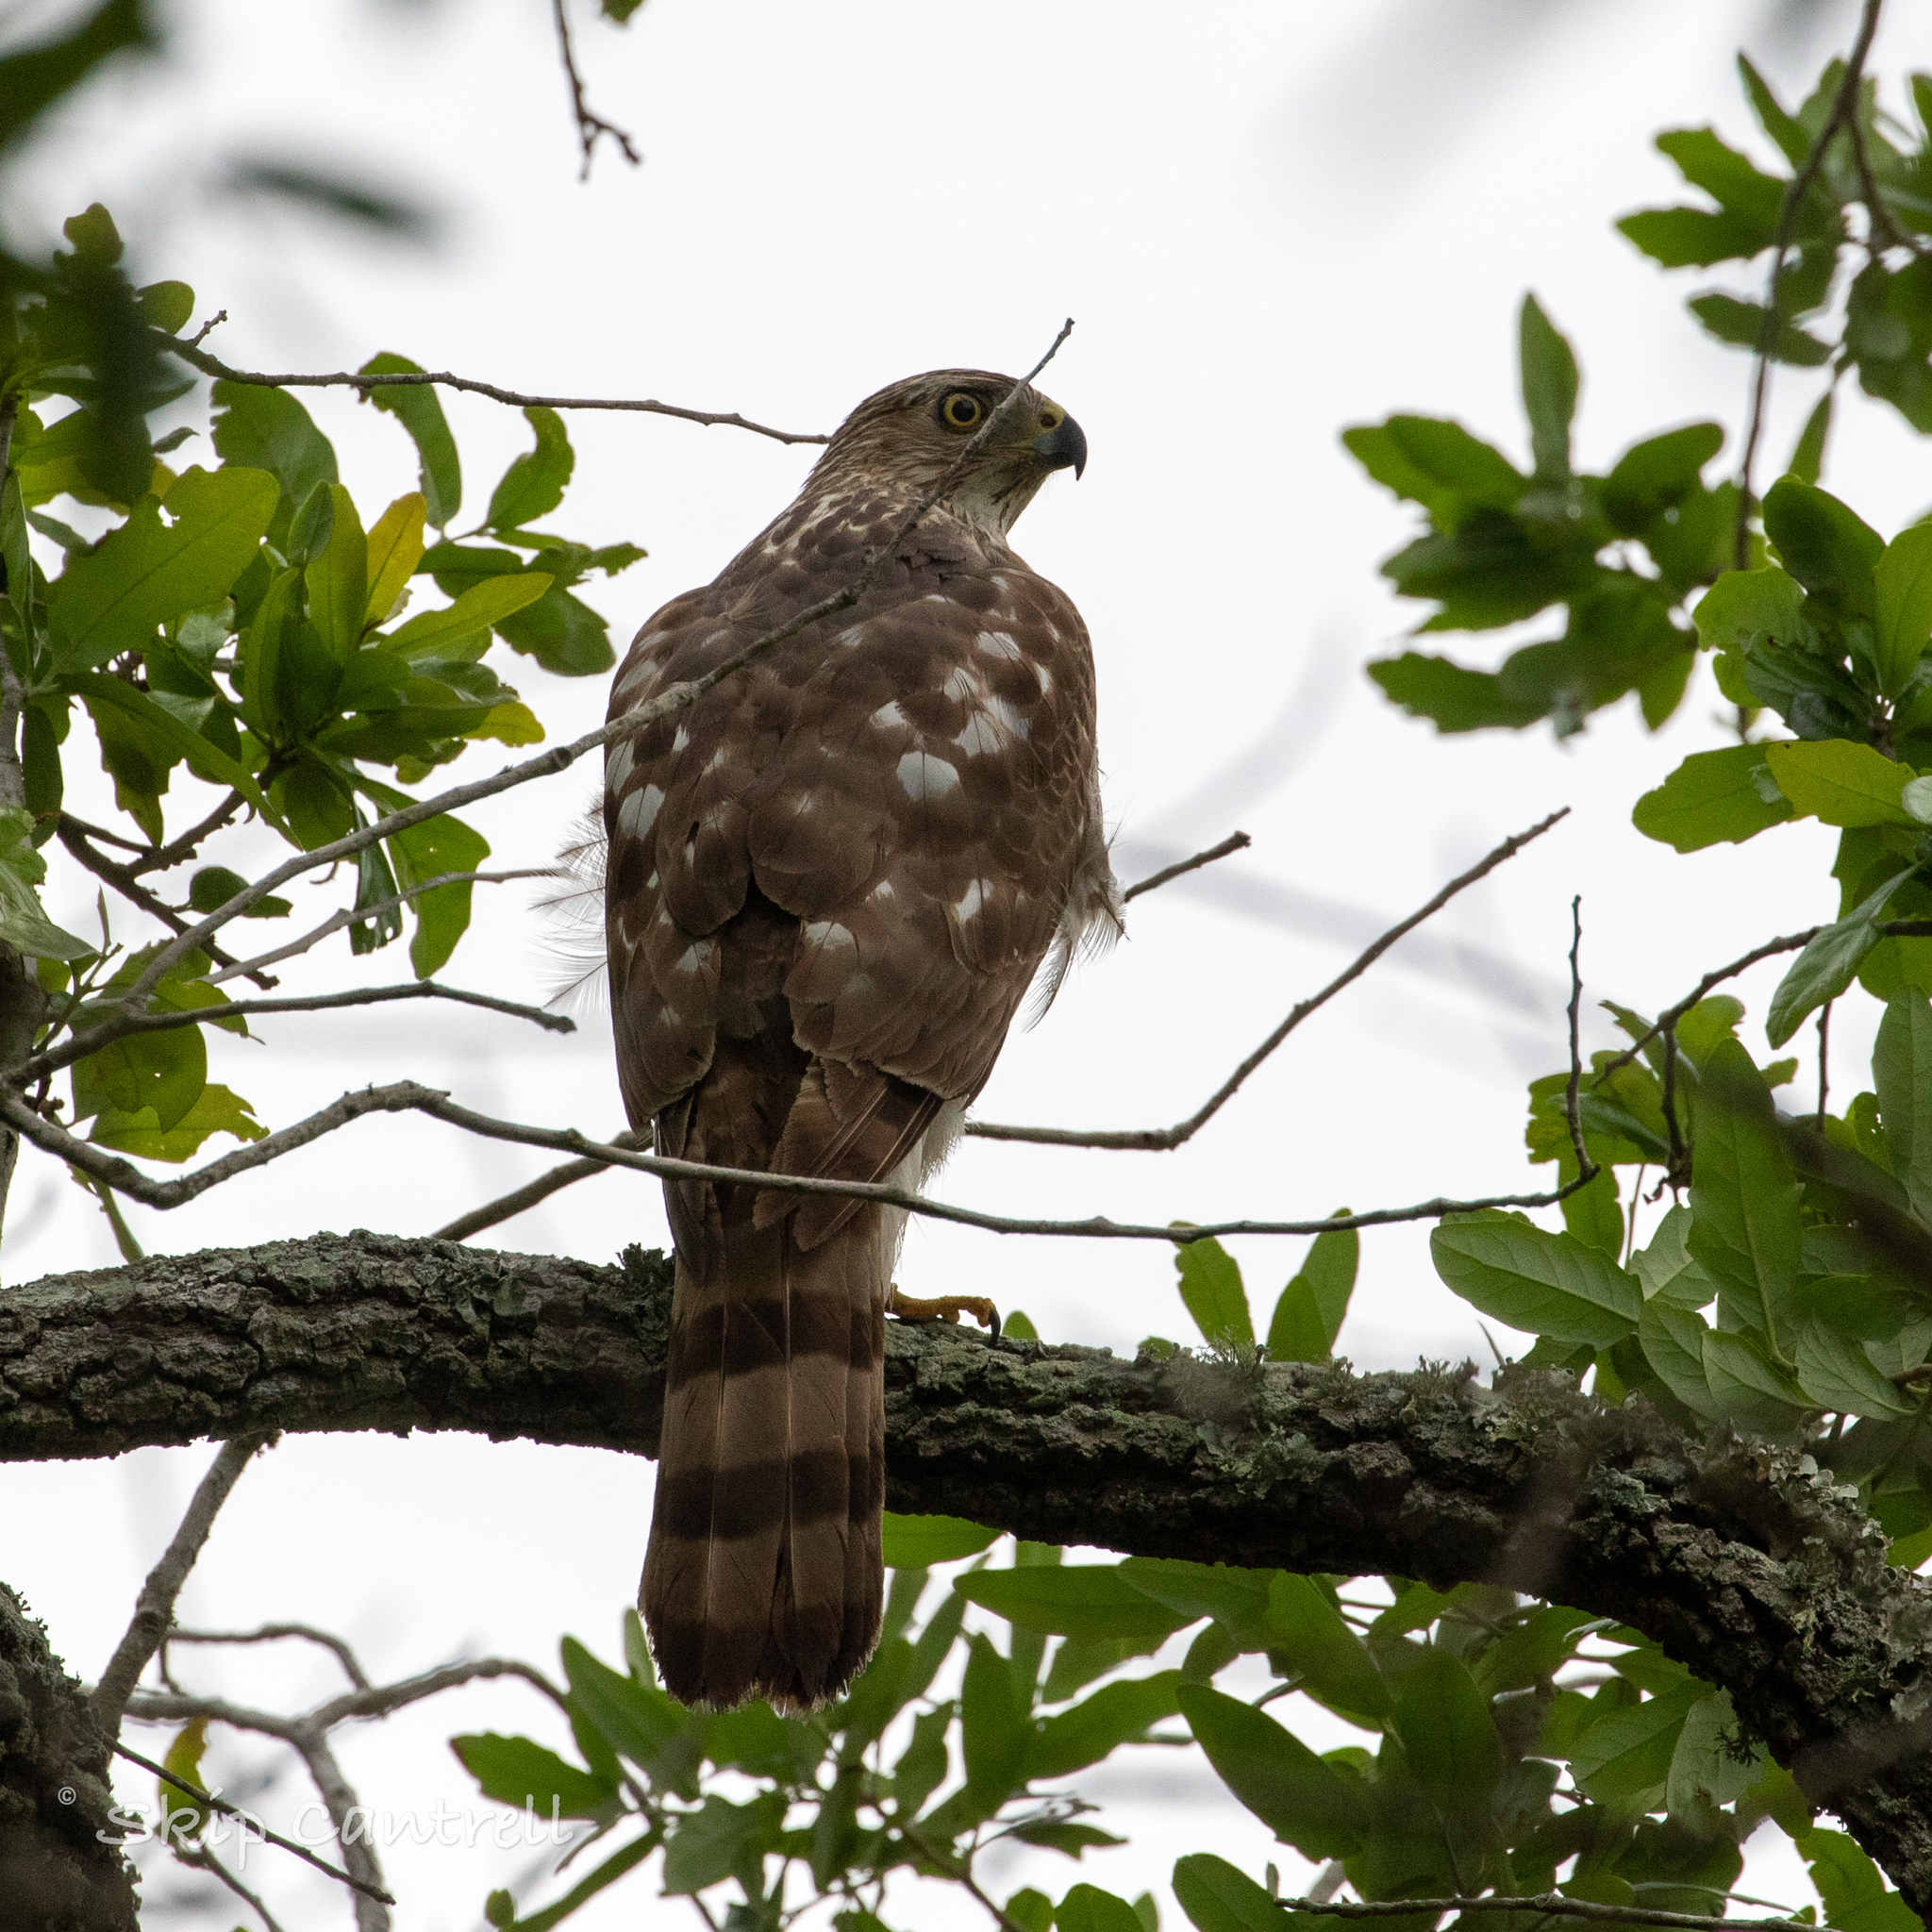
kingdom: Animalia
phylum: Chordata
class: Aves
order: Accipitriformes
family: Accipitridae
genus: Accipiter
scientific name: Accipiter cooperii
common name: Cooper's hawk
